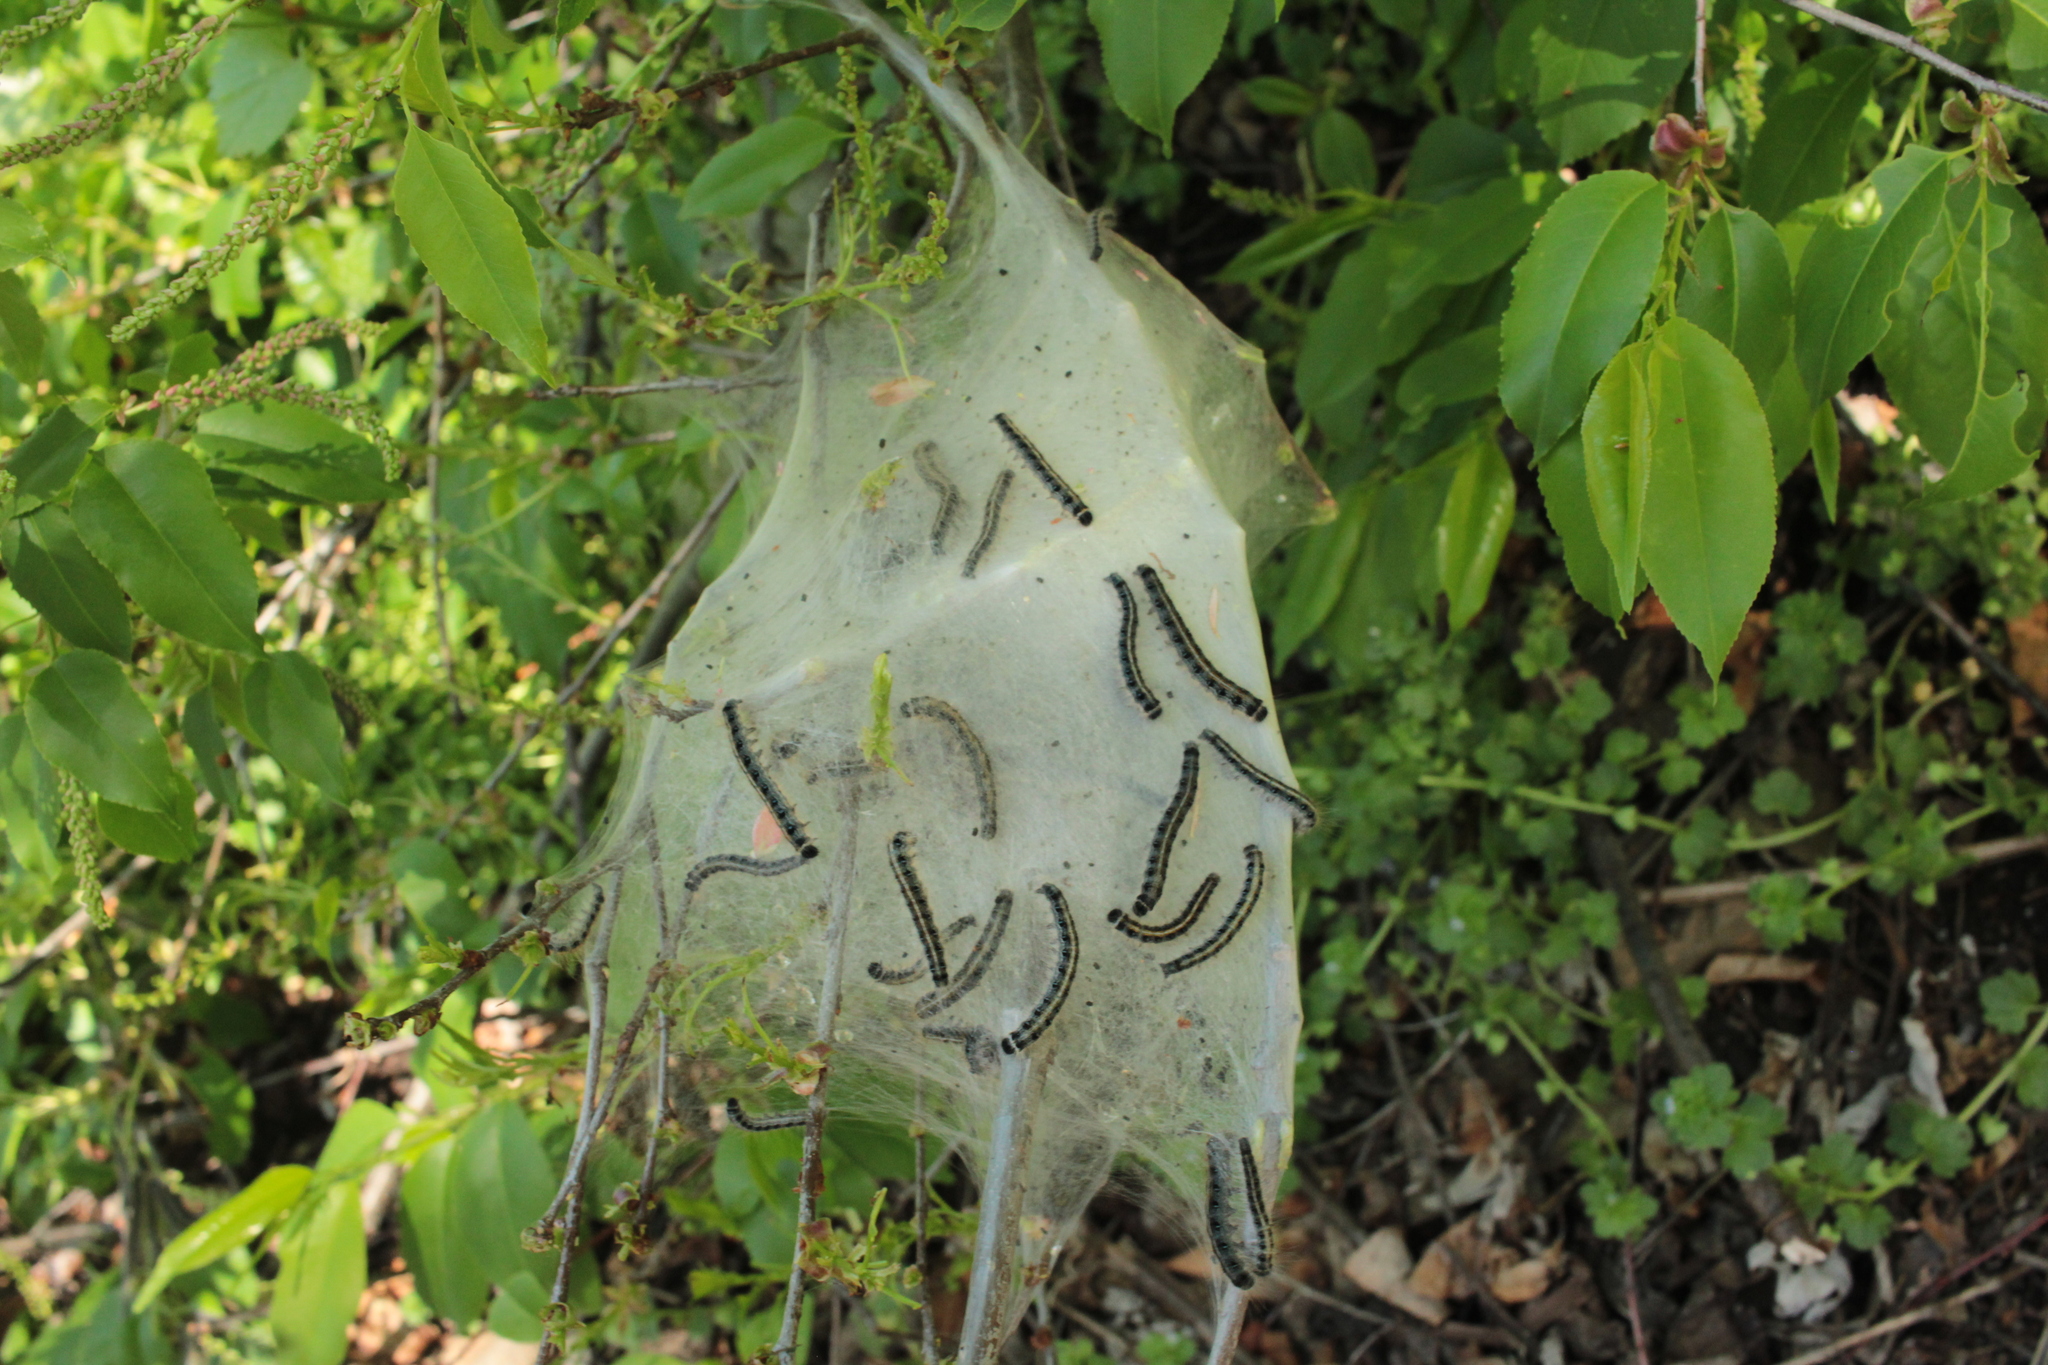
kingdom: Animalia
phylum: Arthropoda
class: Insecta
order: Lepidoptera
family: Lasiocampidae
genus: Malacosoma
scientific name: Malacosoma americana
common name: Eastern tent caterpillar moth
